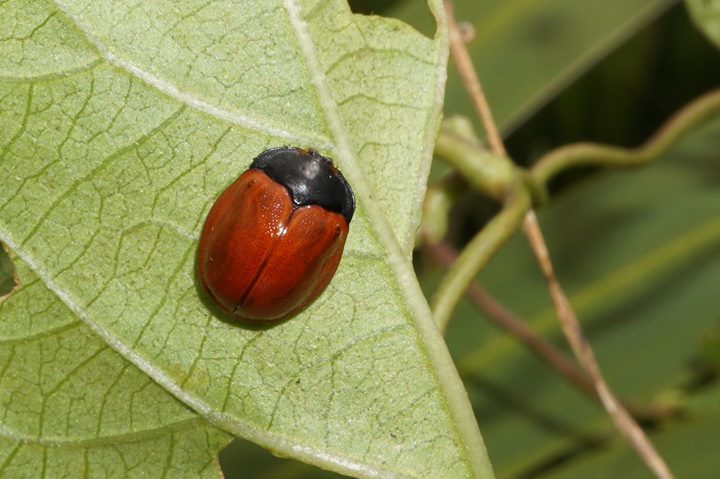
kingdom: Animalia
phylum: Arthropoda
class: Insecta
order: Coleoptera
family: Chrysomelidae
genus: Chelymorpha
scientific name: Chelymorpha cribraria
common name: Tortoise beetle
